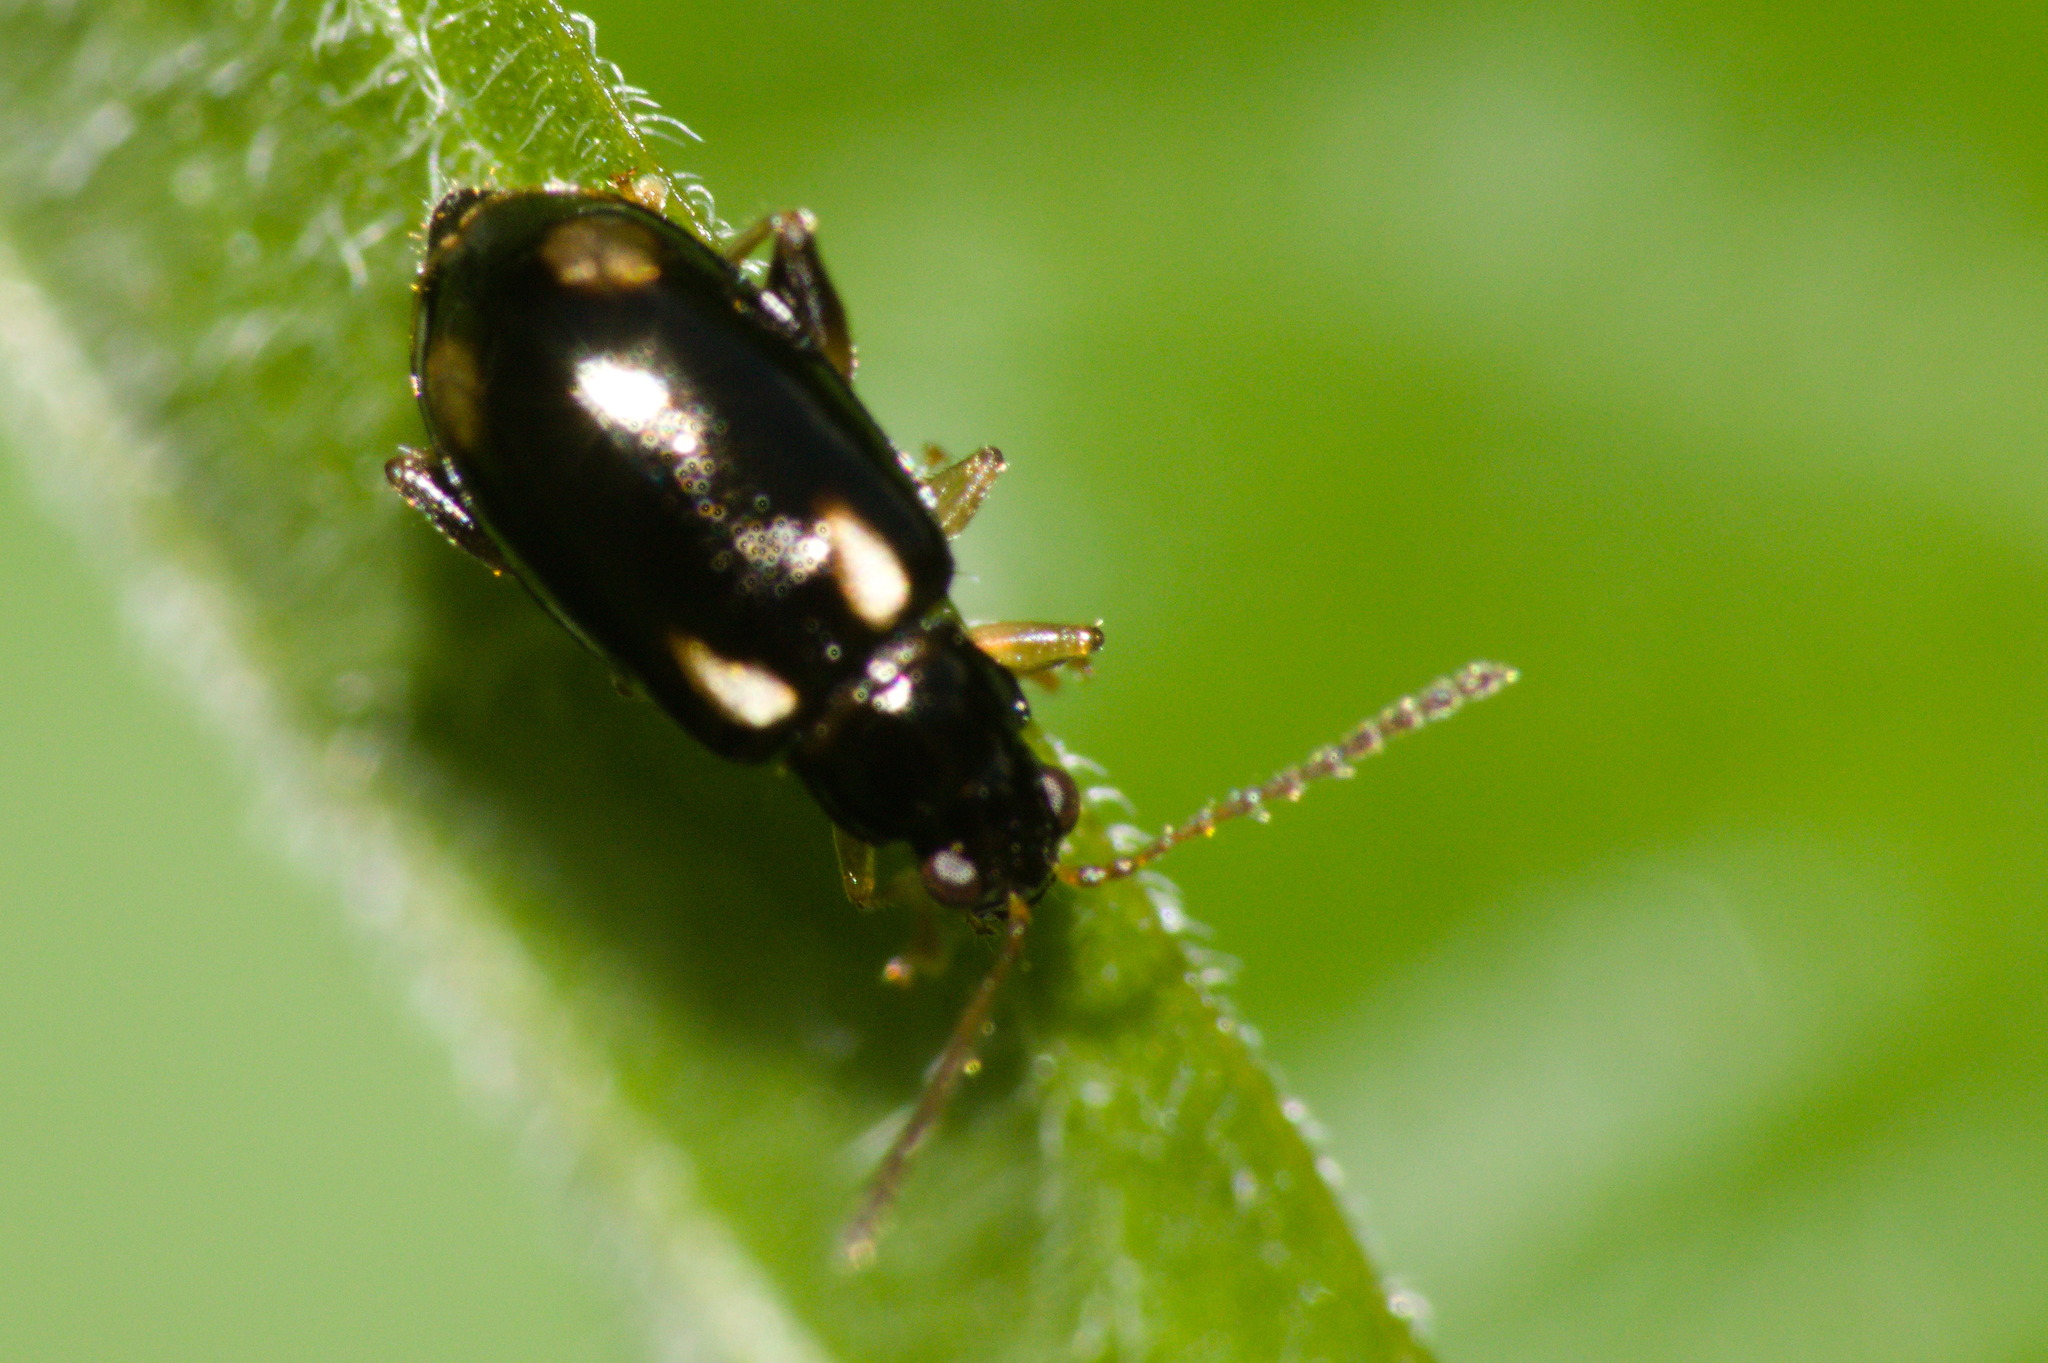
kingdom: Animalia
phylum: Arthropoda
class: Insecta
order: Coleoptera
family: Chrysomelidae
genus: Systena
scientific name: Systena silvestrii
